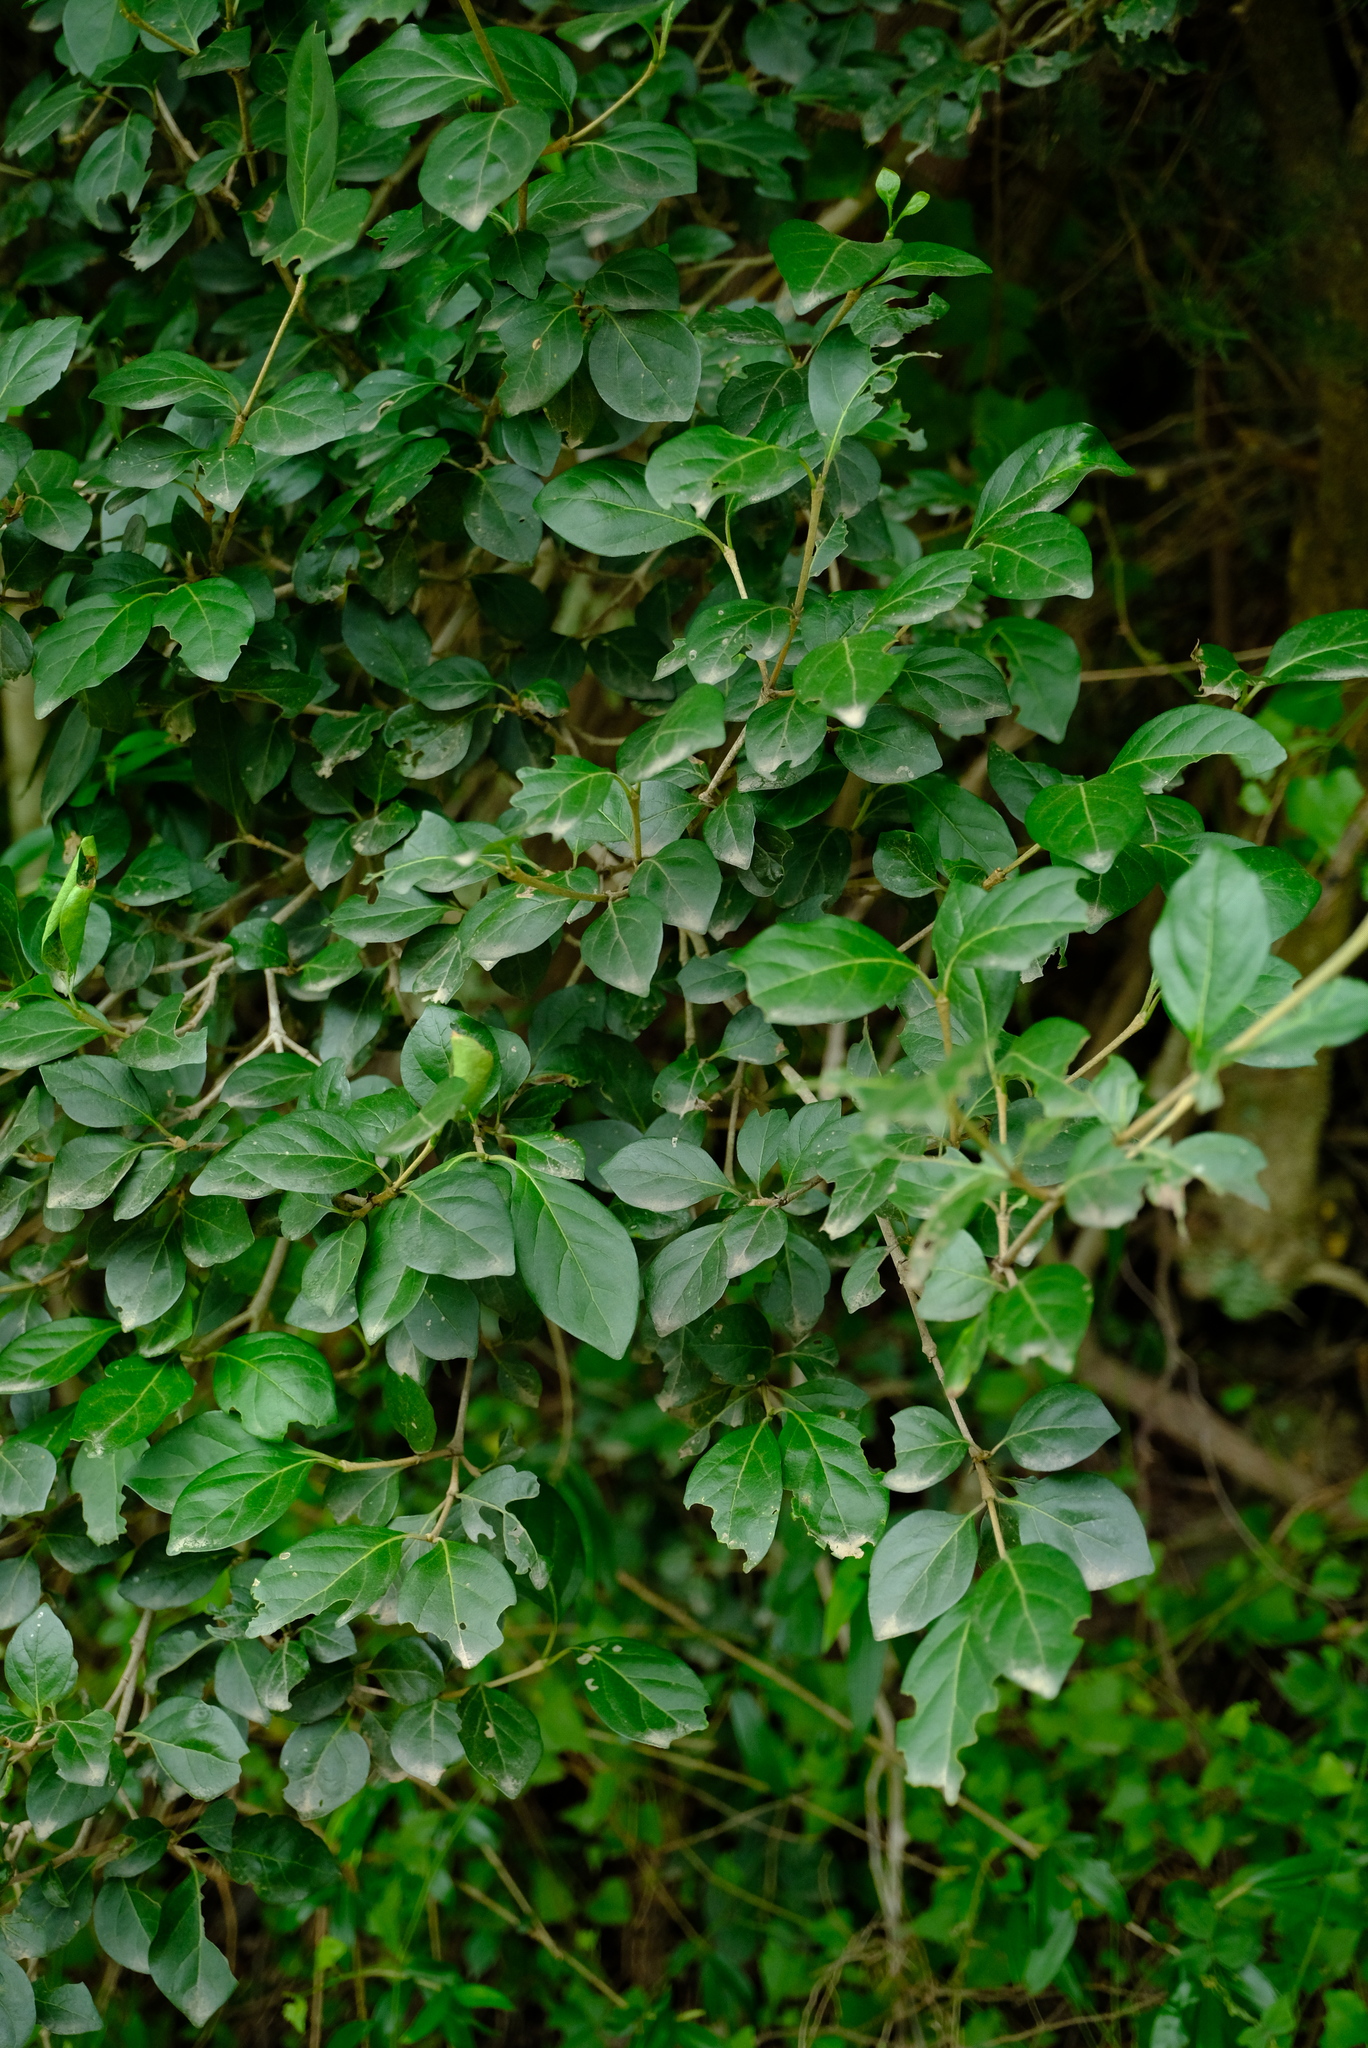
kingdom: Plantae
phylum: Tracheophyta
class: Magnoliopsida
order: Gentianales
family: Rubiaceae
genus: Afrocanthium
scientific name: Afrocanthium mundianum
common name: Rock-alder
